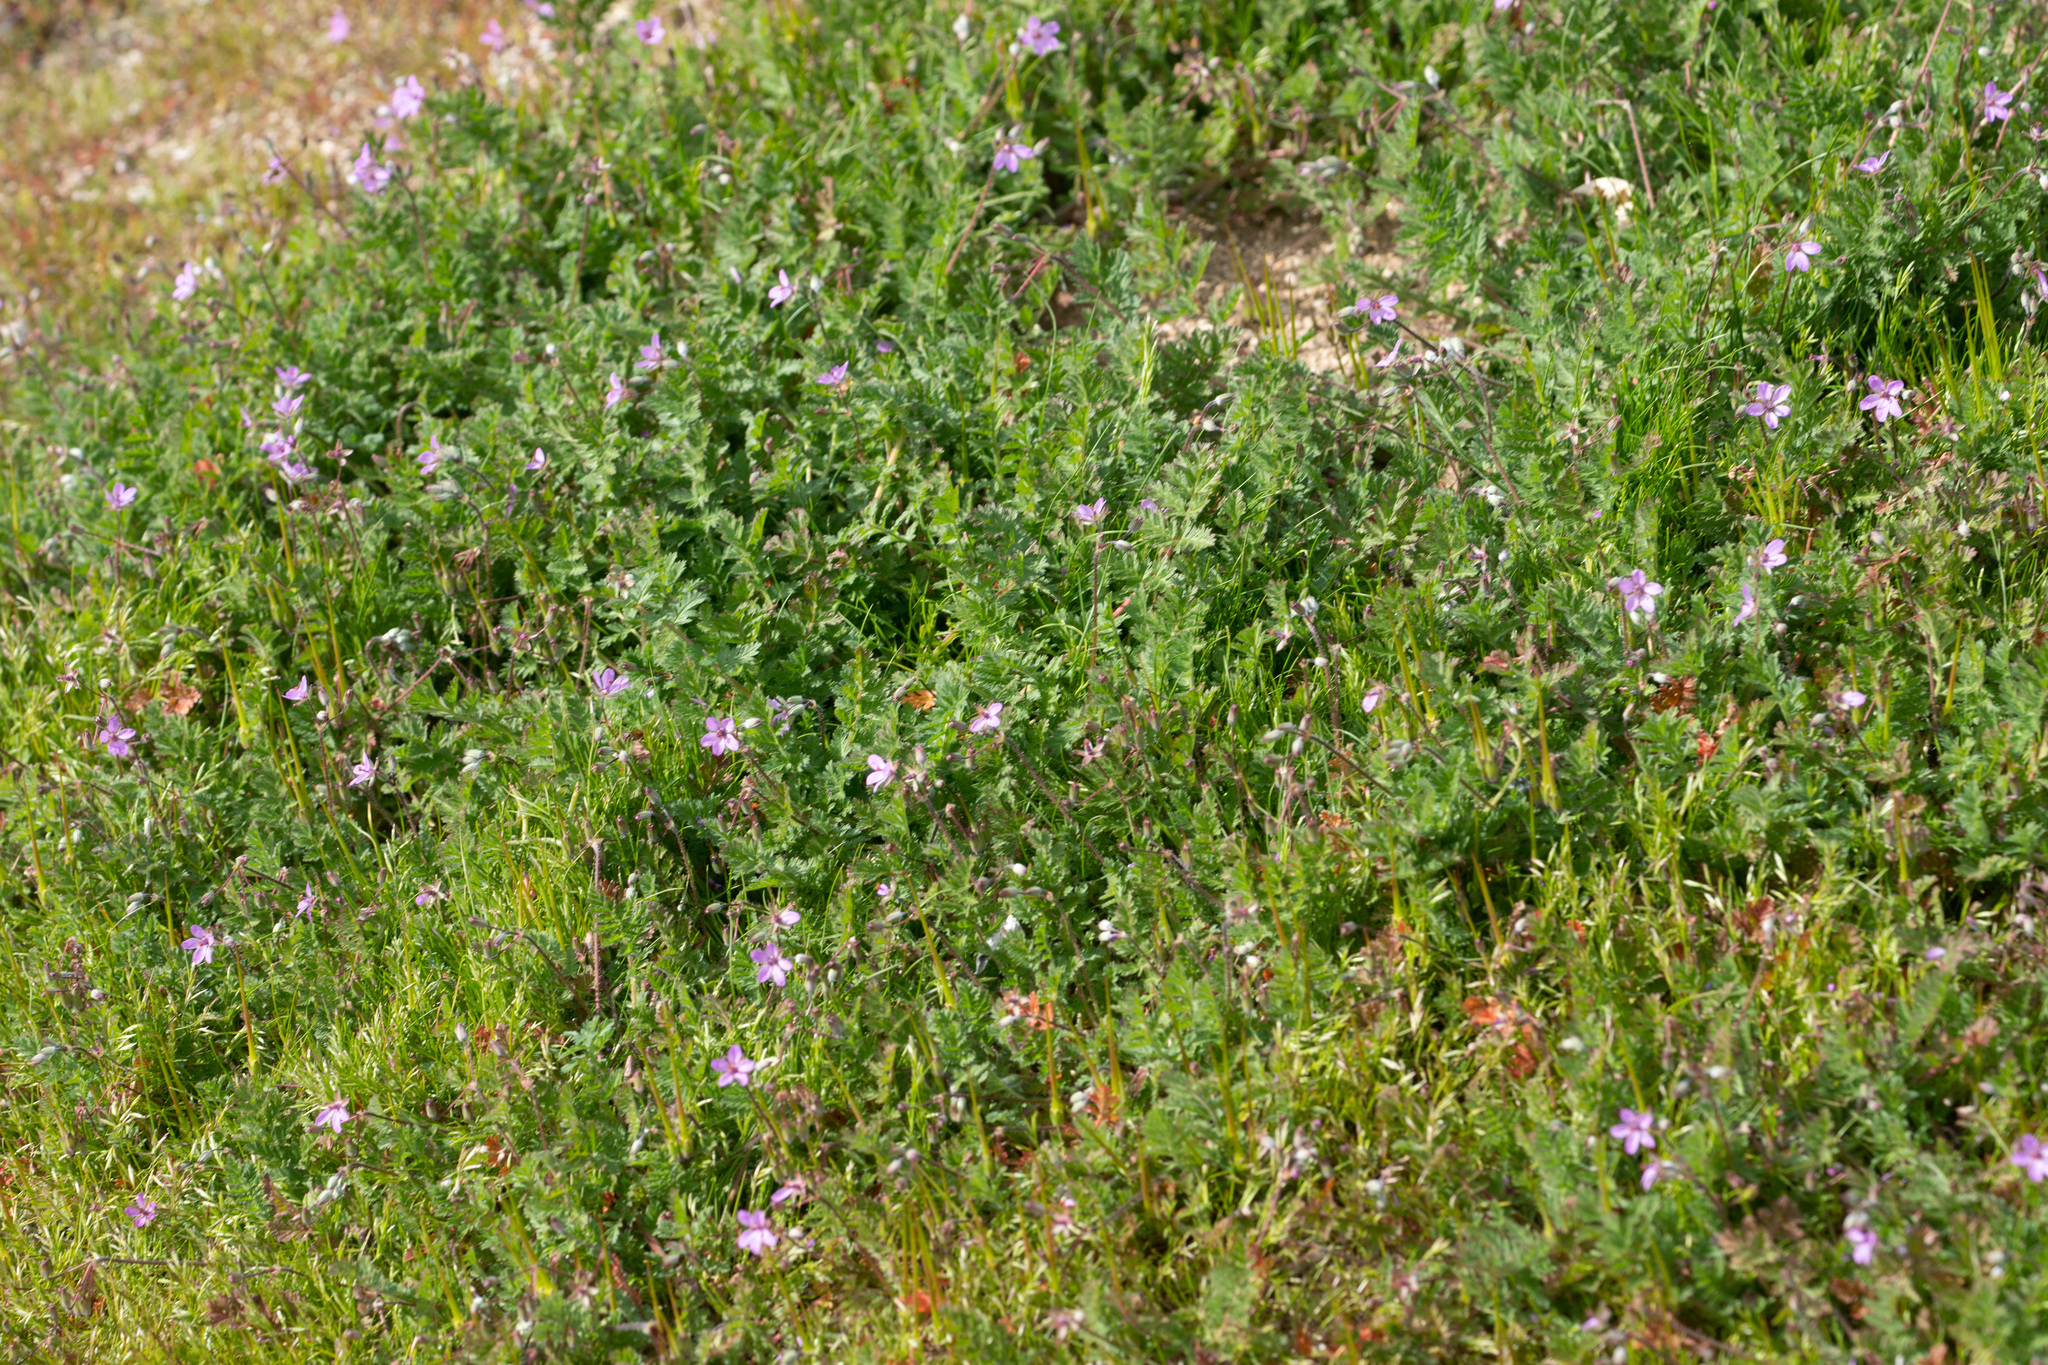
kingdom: Plantae
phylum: Tracheophyta
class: Magnoliopsida
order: Geraniales
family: Geraniaceae
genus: Erodium
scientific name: Erodium cicutarium
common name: Common stork's-bill
